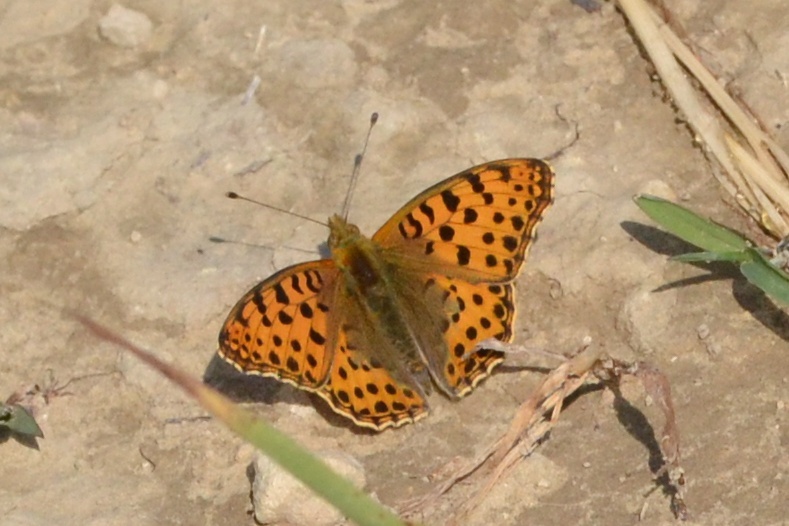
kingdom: Animalia
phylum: Arthropoda
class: Insecta
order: Lepidoptera
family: Nymphalidae
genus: Issoria
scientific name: Issoria lathonia
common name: Queen of spain fritillary
